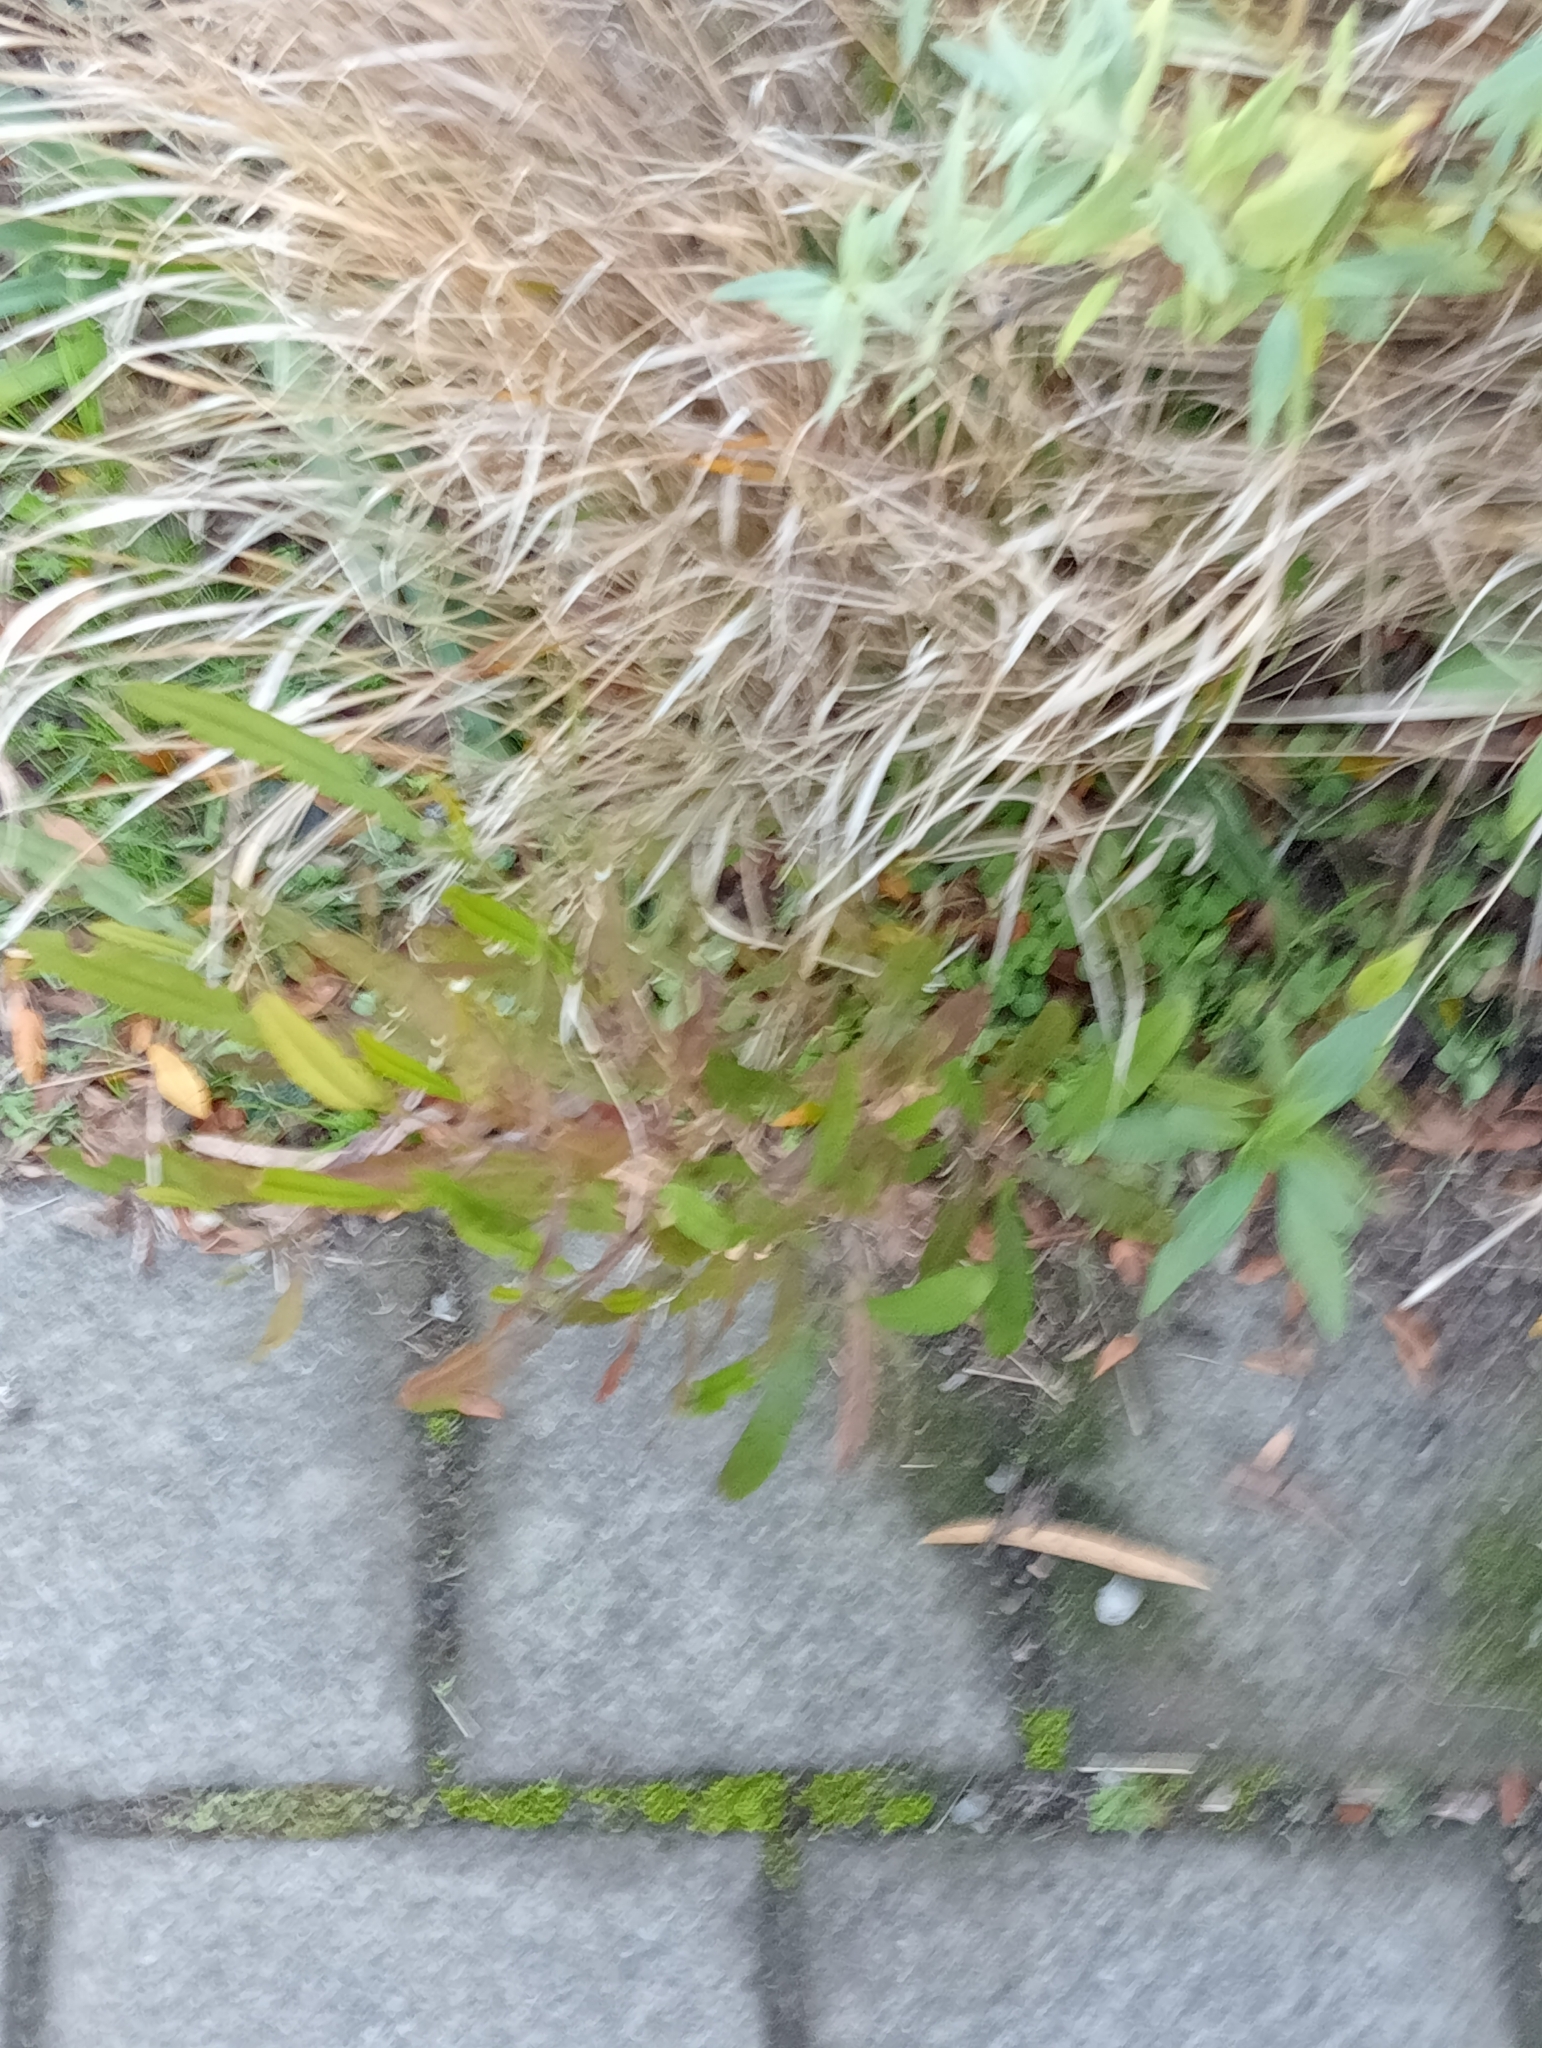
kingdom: Plantae
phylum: Tracheophyta
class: Magnoliopsida
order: Sapindales
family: Sapindaceae
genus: Dodonaea
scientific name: Dodonaea viscosa
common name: Hopbush
